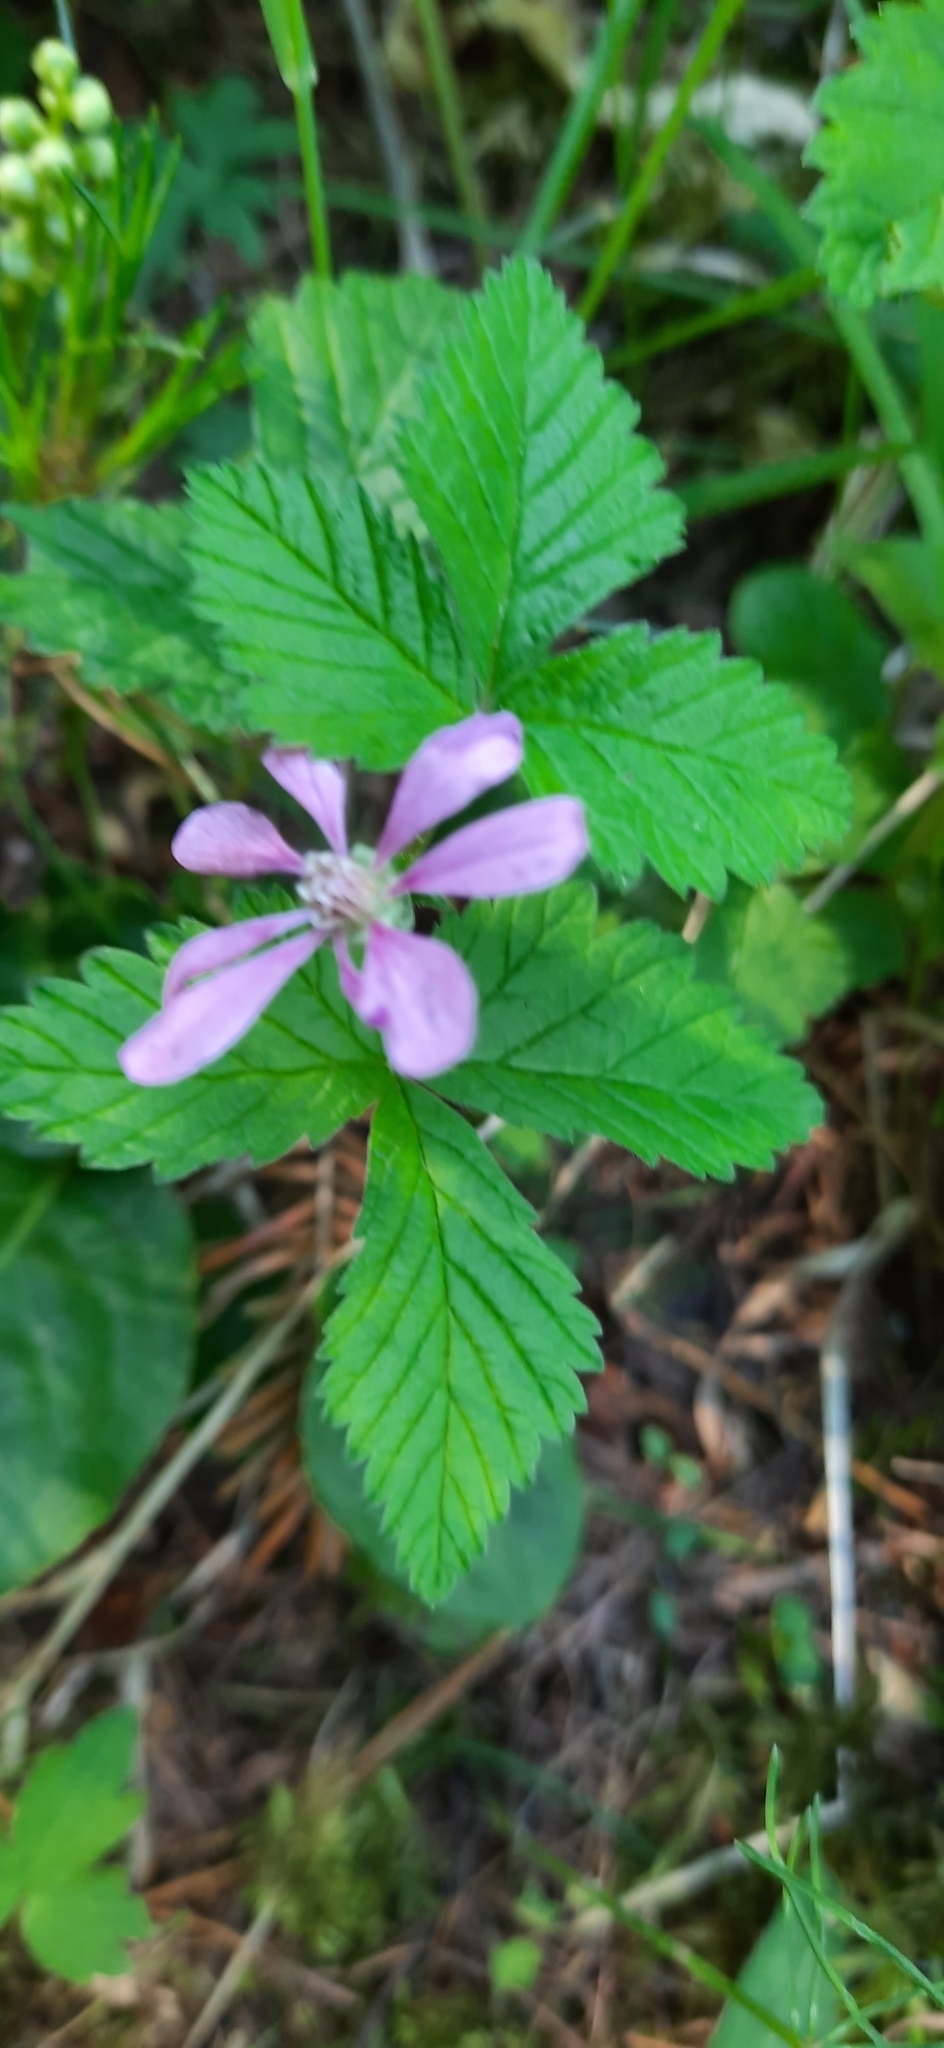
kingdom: Plantae
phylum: Tracheophyta
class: Magnoliopsida
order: Rosales
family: Rosaceae
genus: Rubus
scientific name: Rubus arcticus
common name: Arctic bramble
